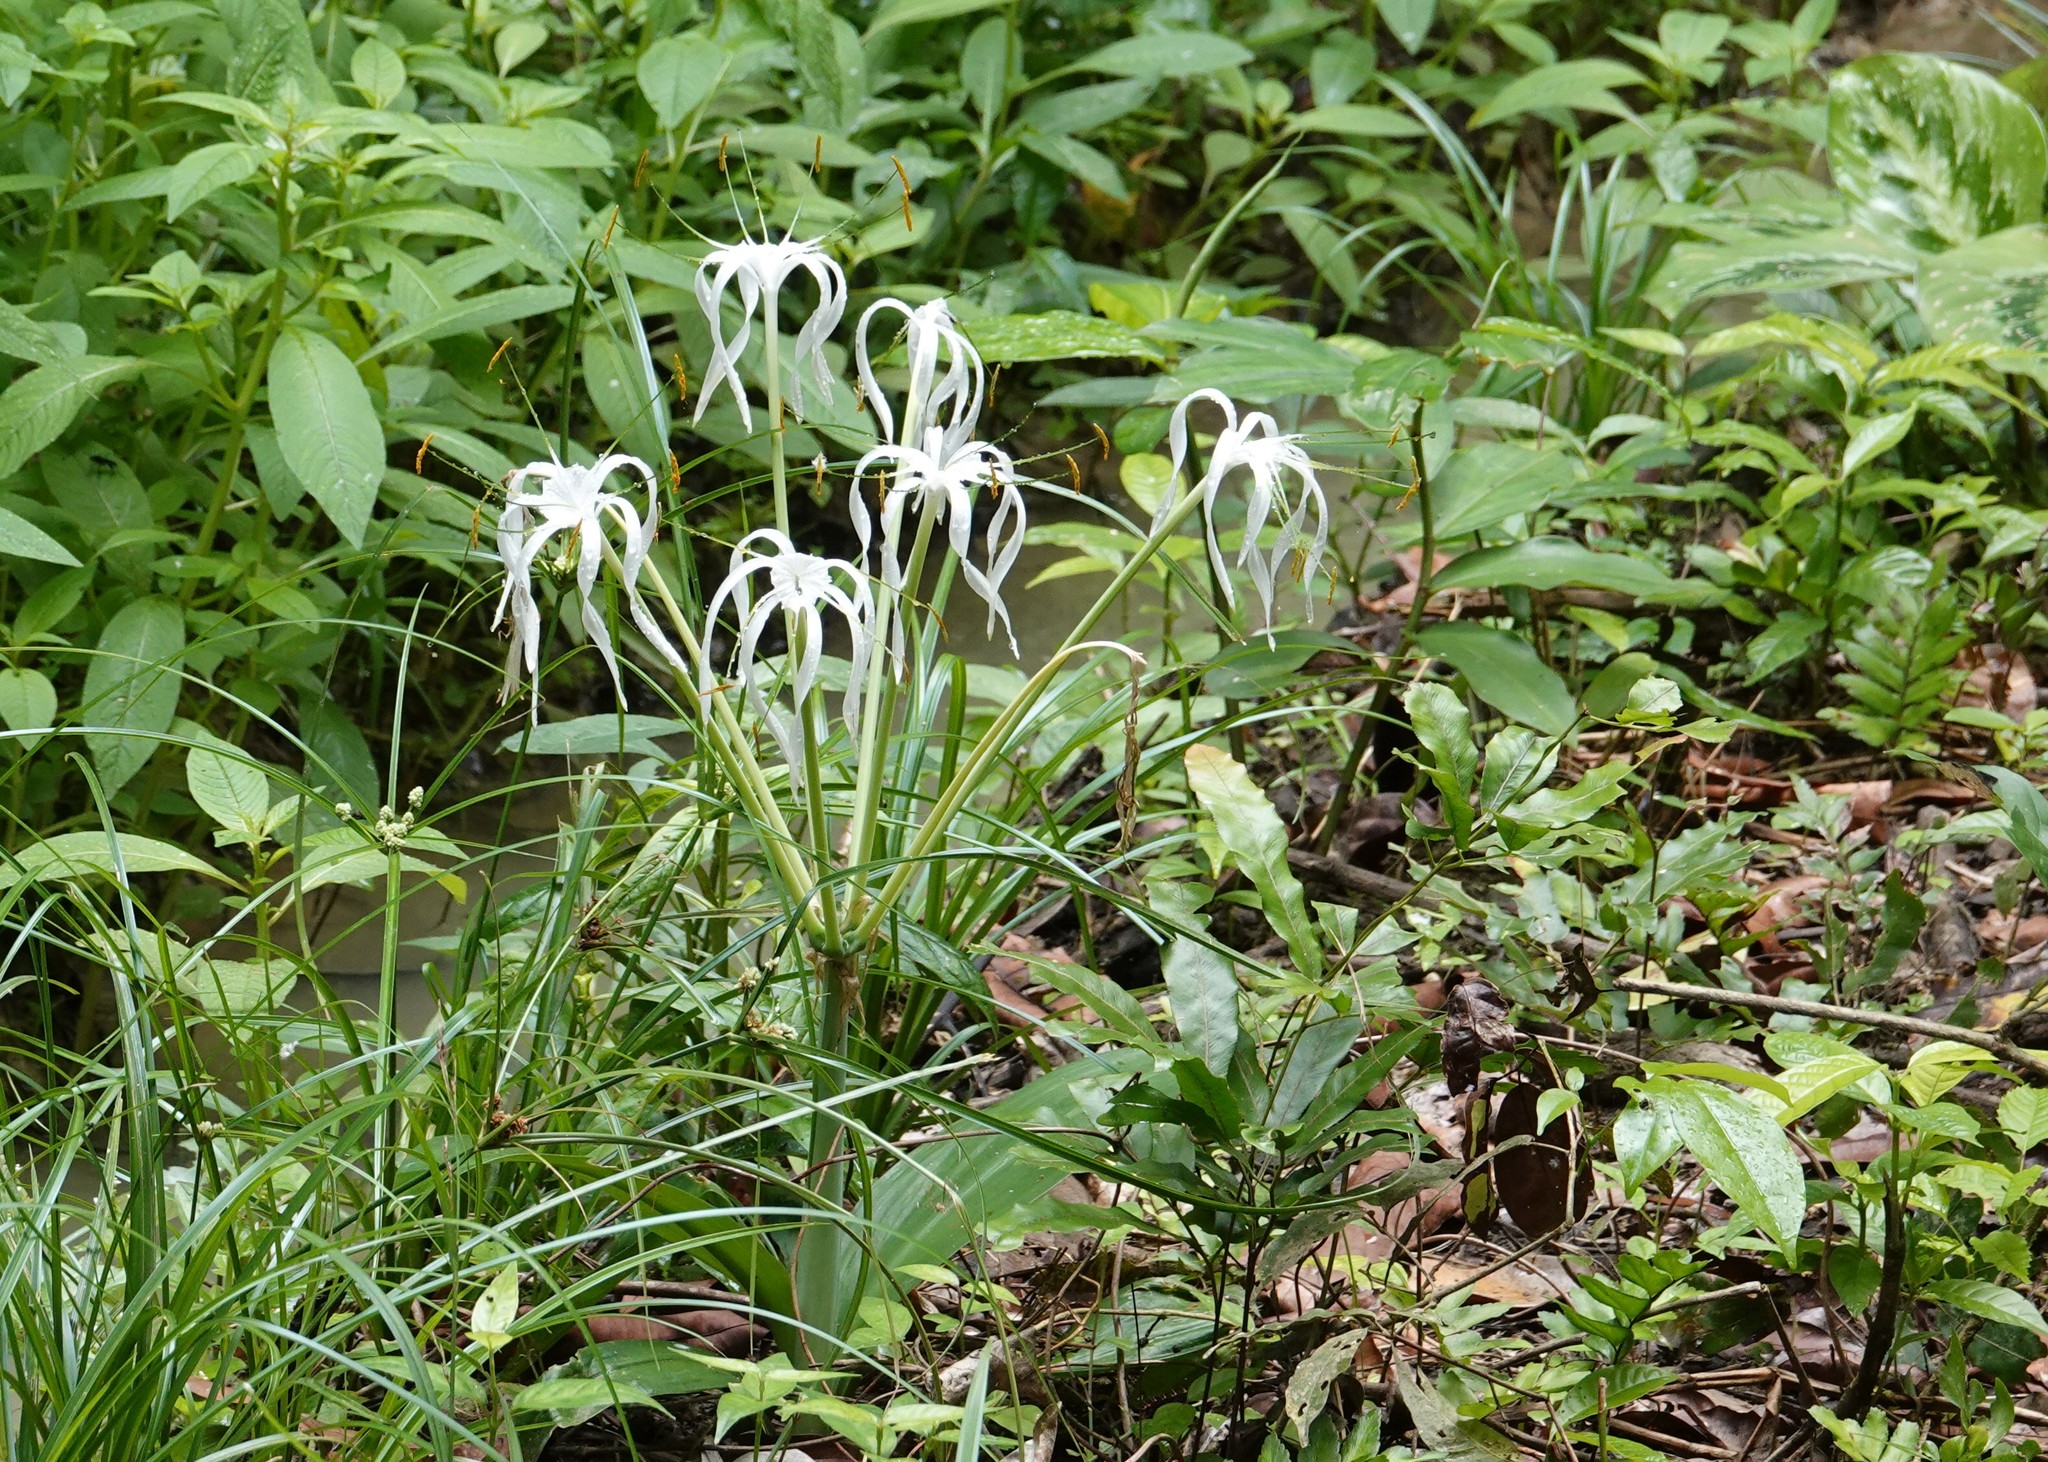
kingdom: Plantae
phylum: Tracheophyta
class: Liliopsida
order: Asparagales
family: Amaryllidaceae
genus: Hymenocallis
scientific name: Hymenocallis tubiflora
